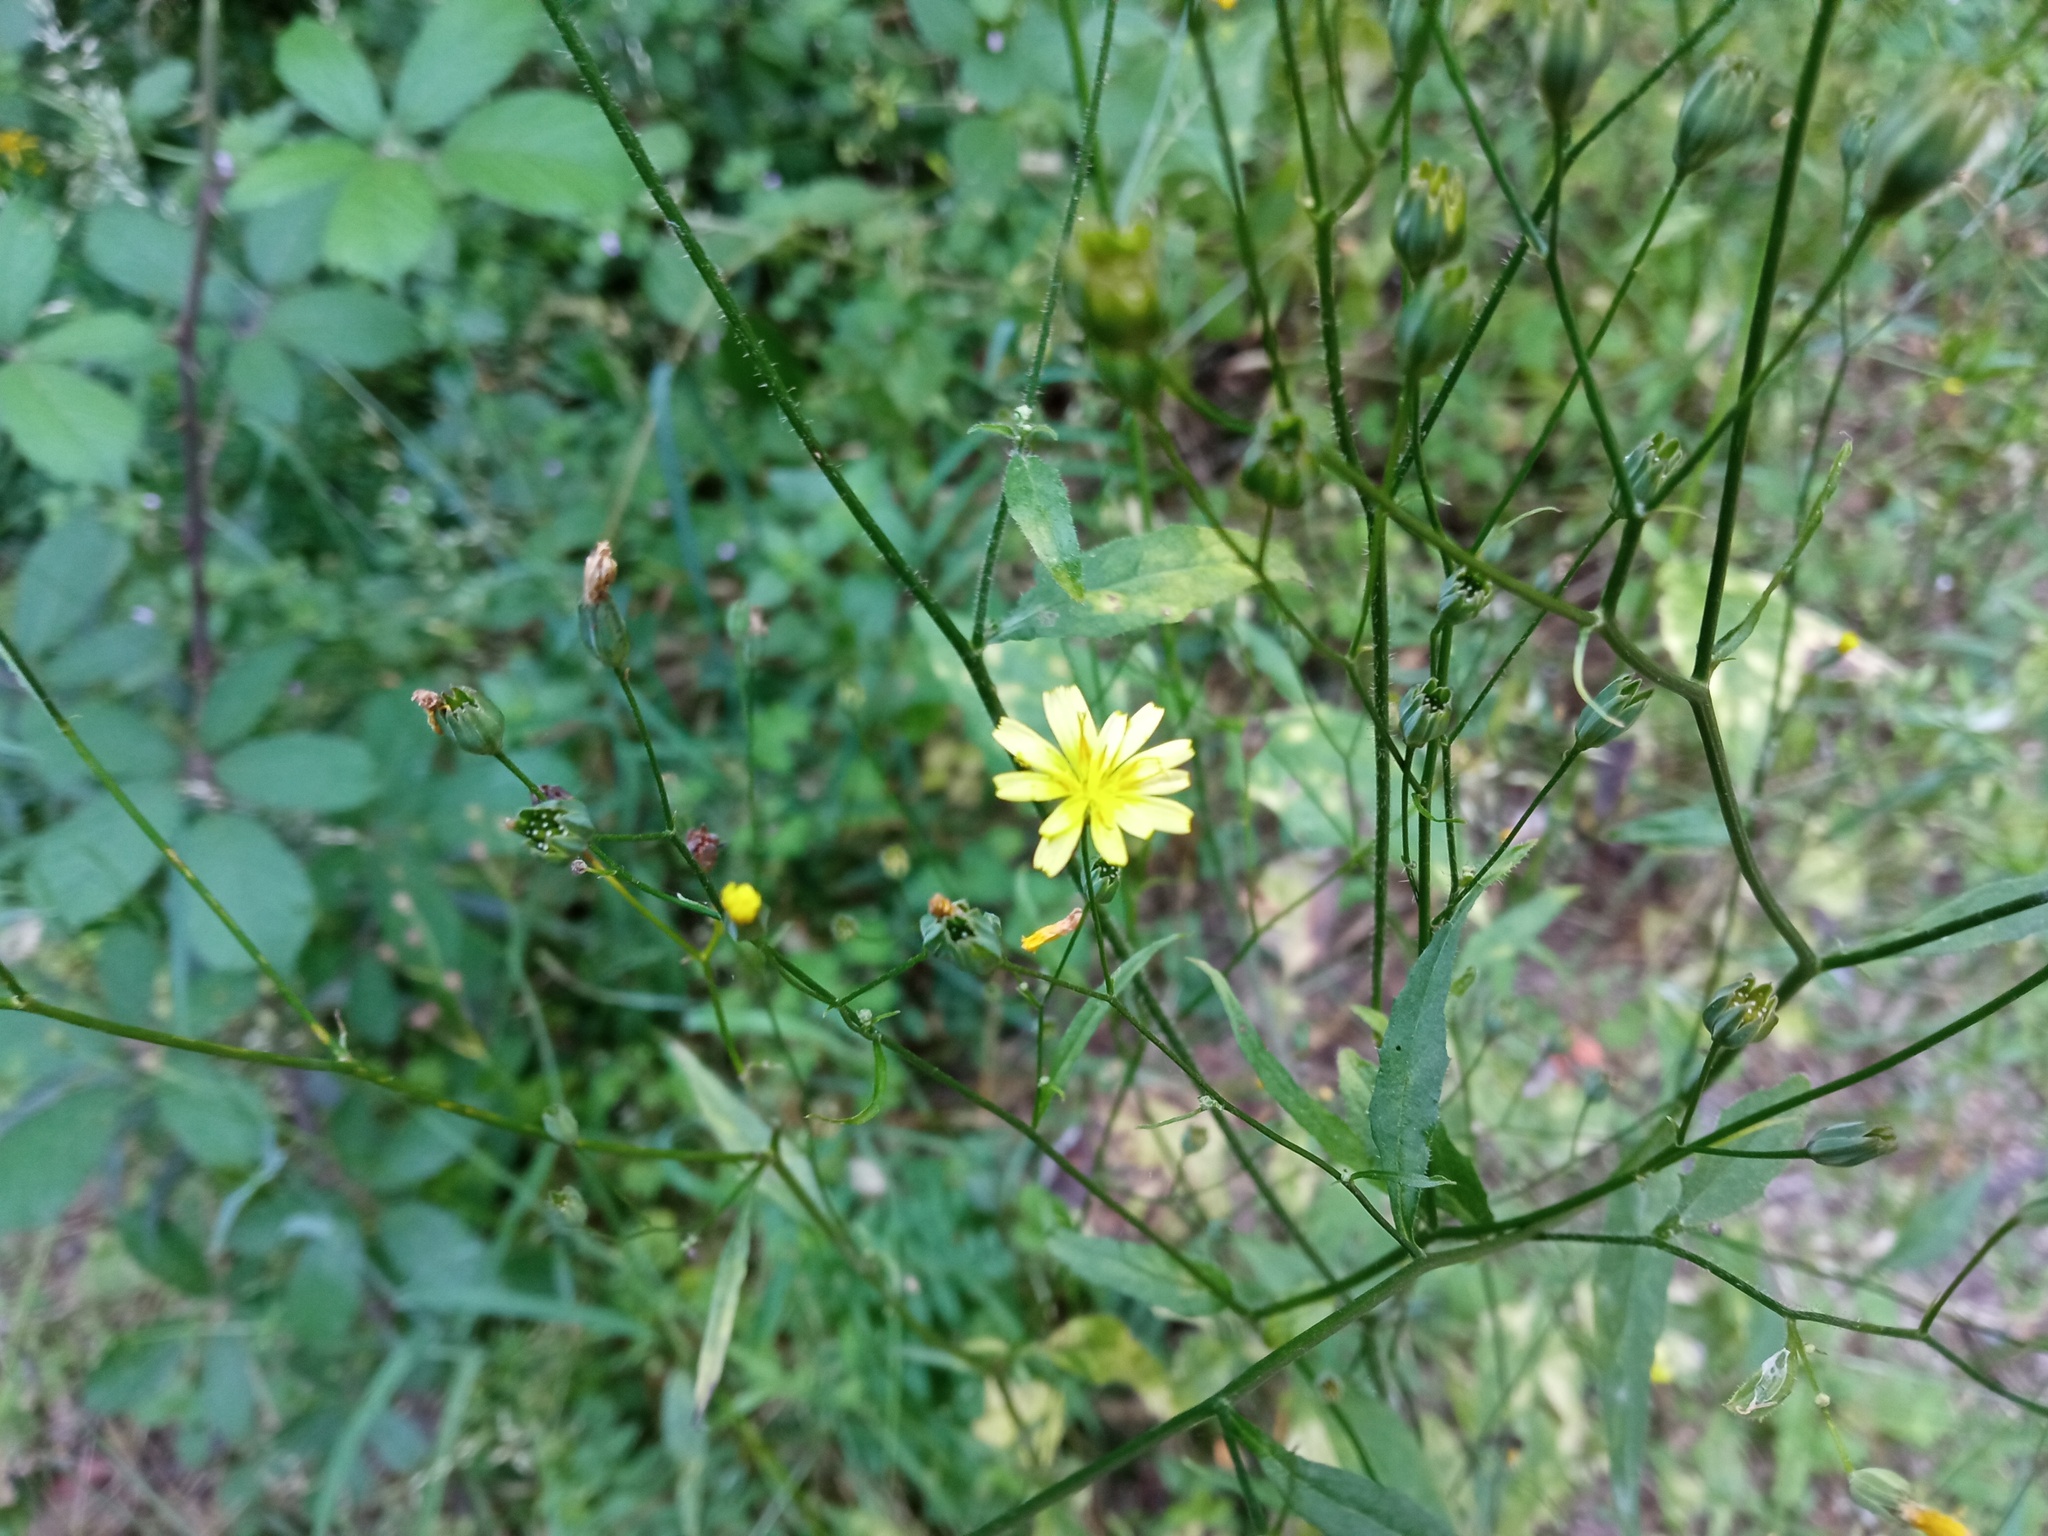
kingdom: Plantae
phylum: Tracheophyta
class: Magnoliopsida
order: Asterales
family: Asteraceae
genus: Lapsana
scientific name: Lapsana communis
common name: Nipplewort
